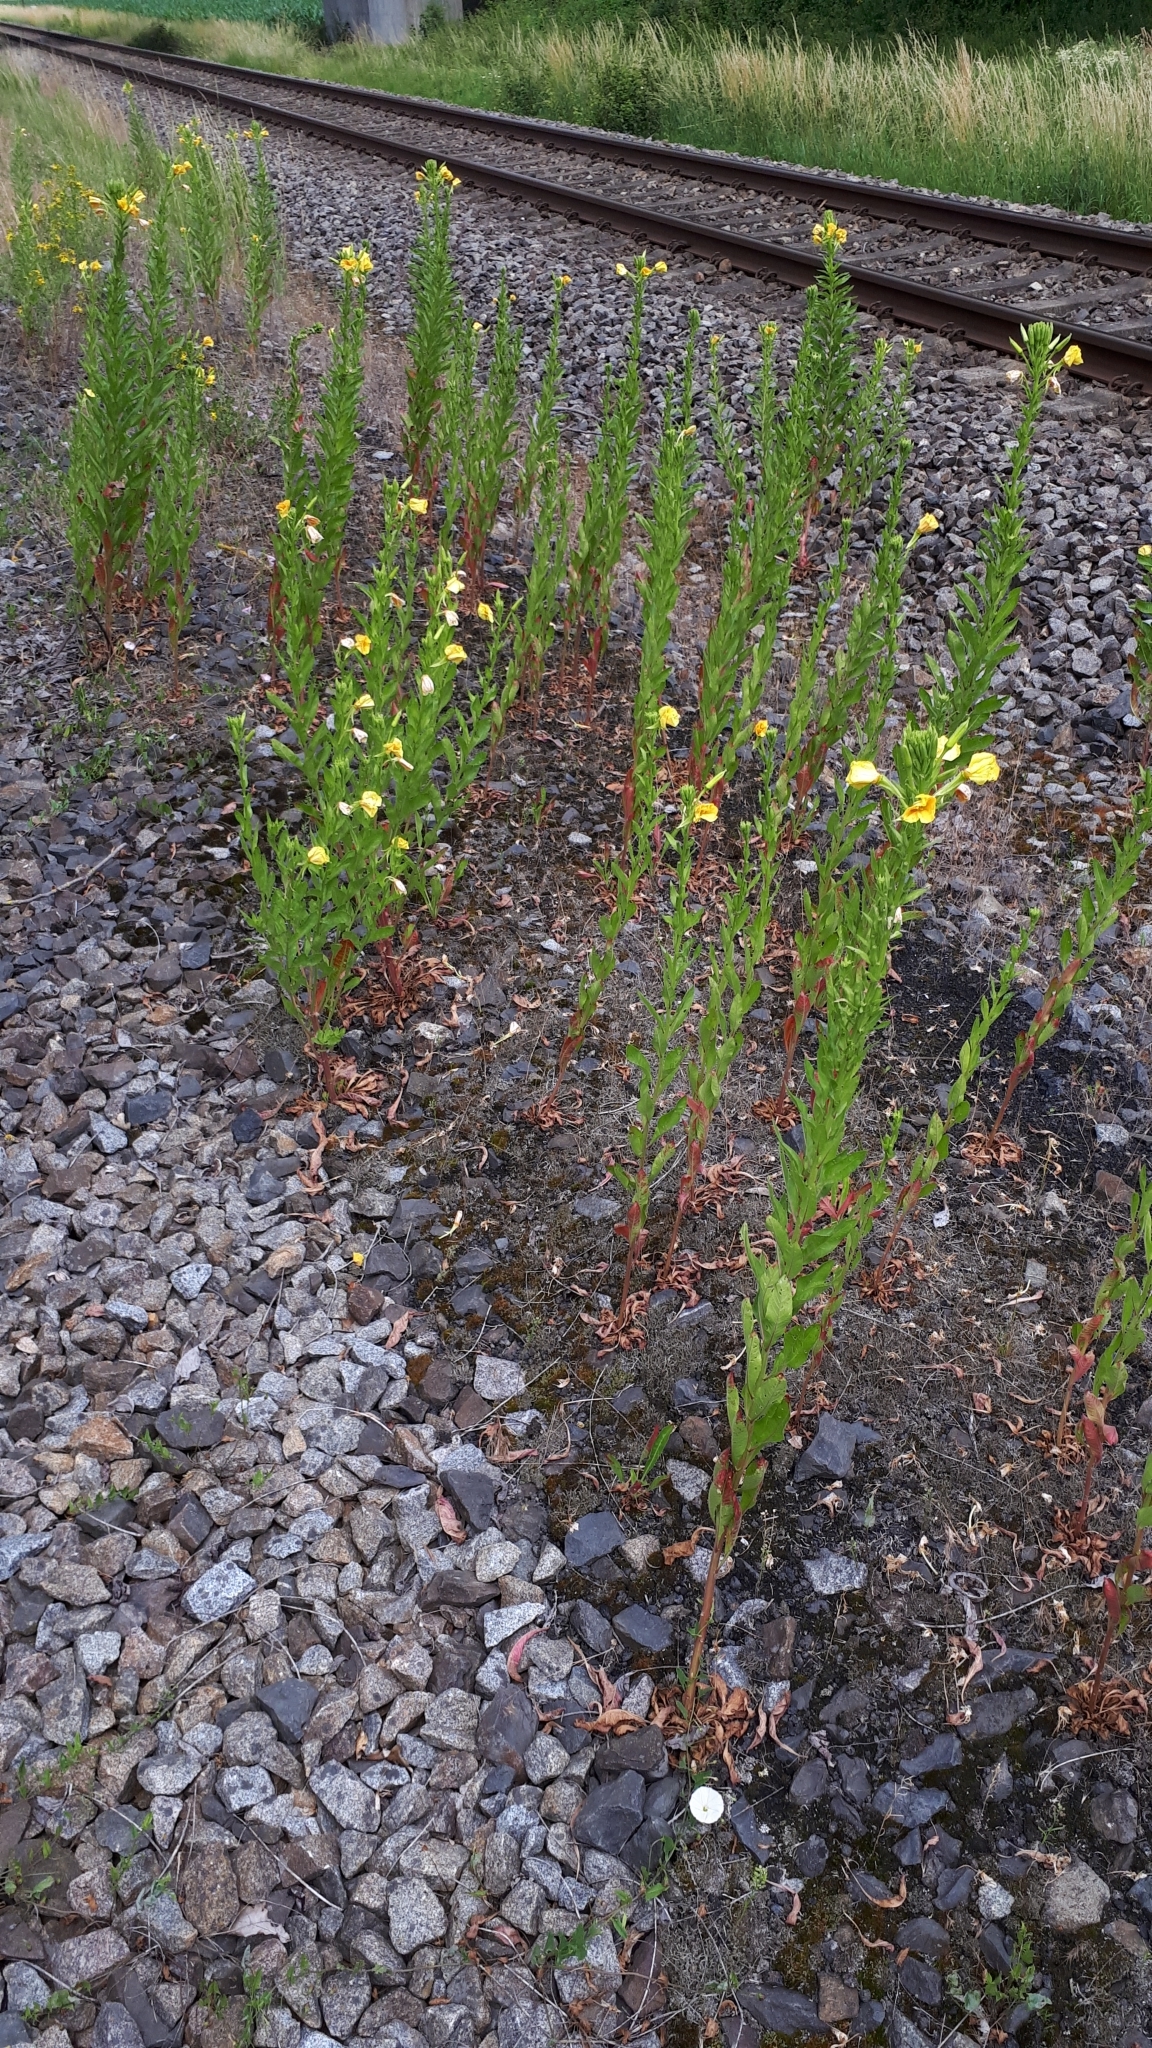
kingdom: Plantae
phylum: Tracheophyta
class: Magnoliopsida
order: Myrtales
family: Onagraceae
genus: Oenothera
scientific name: Oenothera biennis
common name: Common evening-primrose
